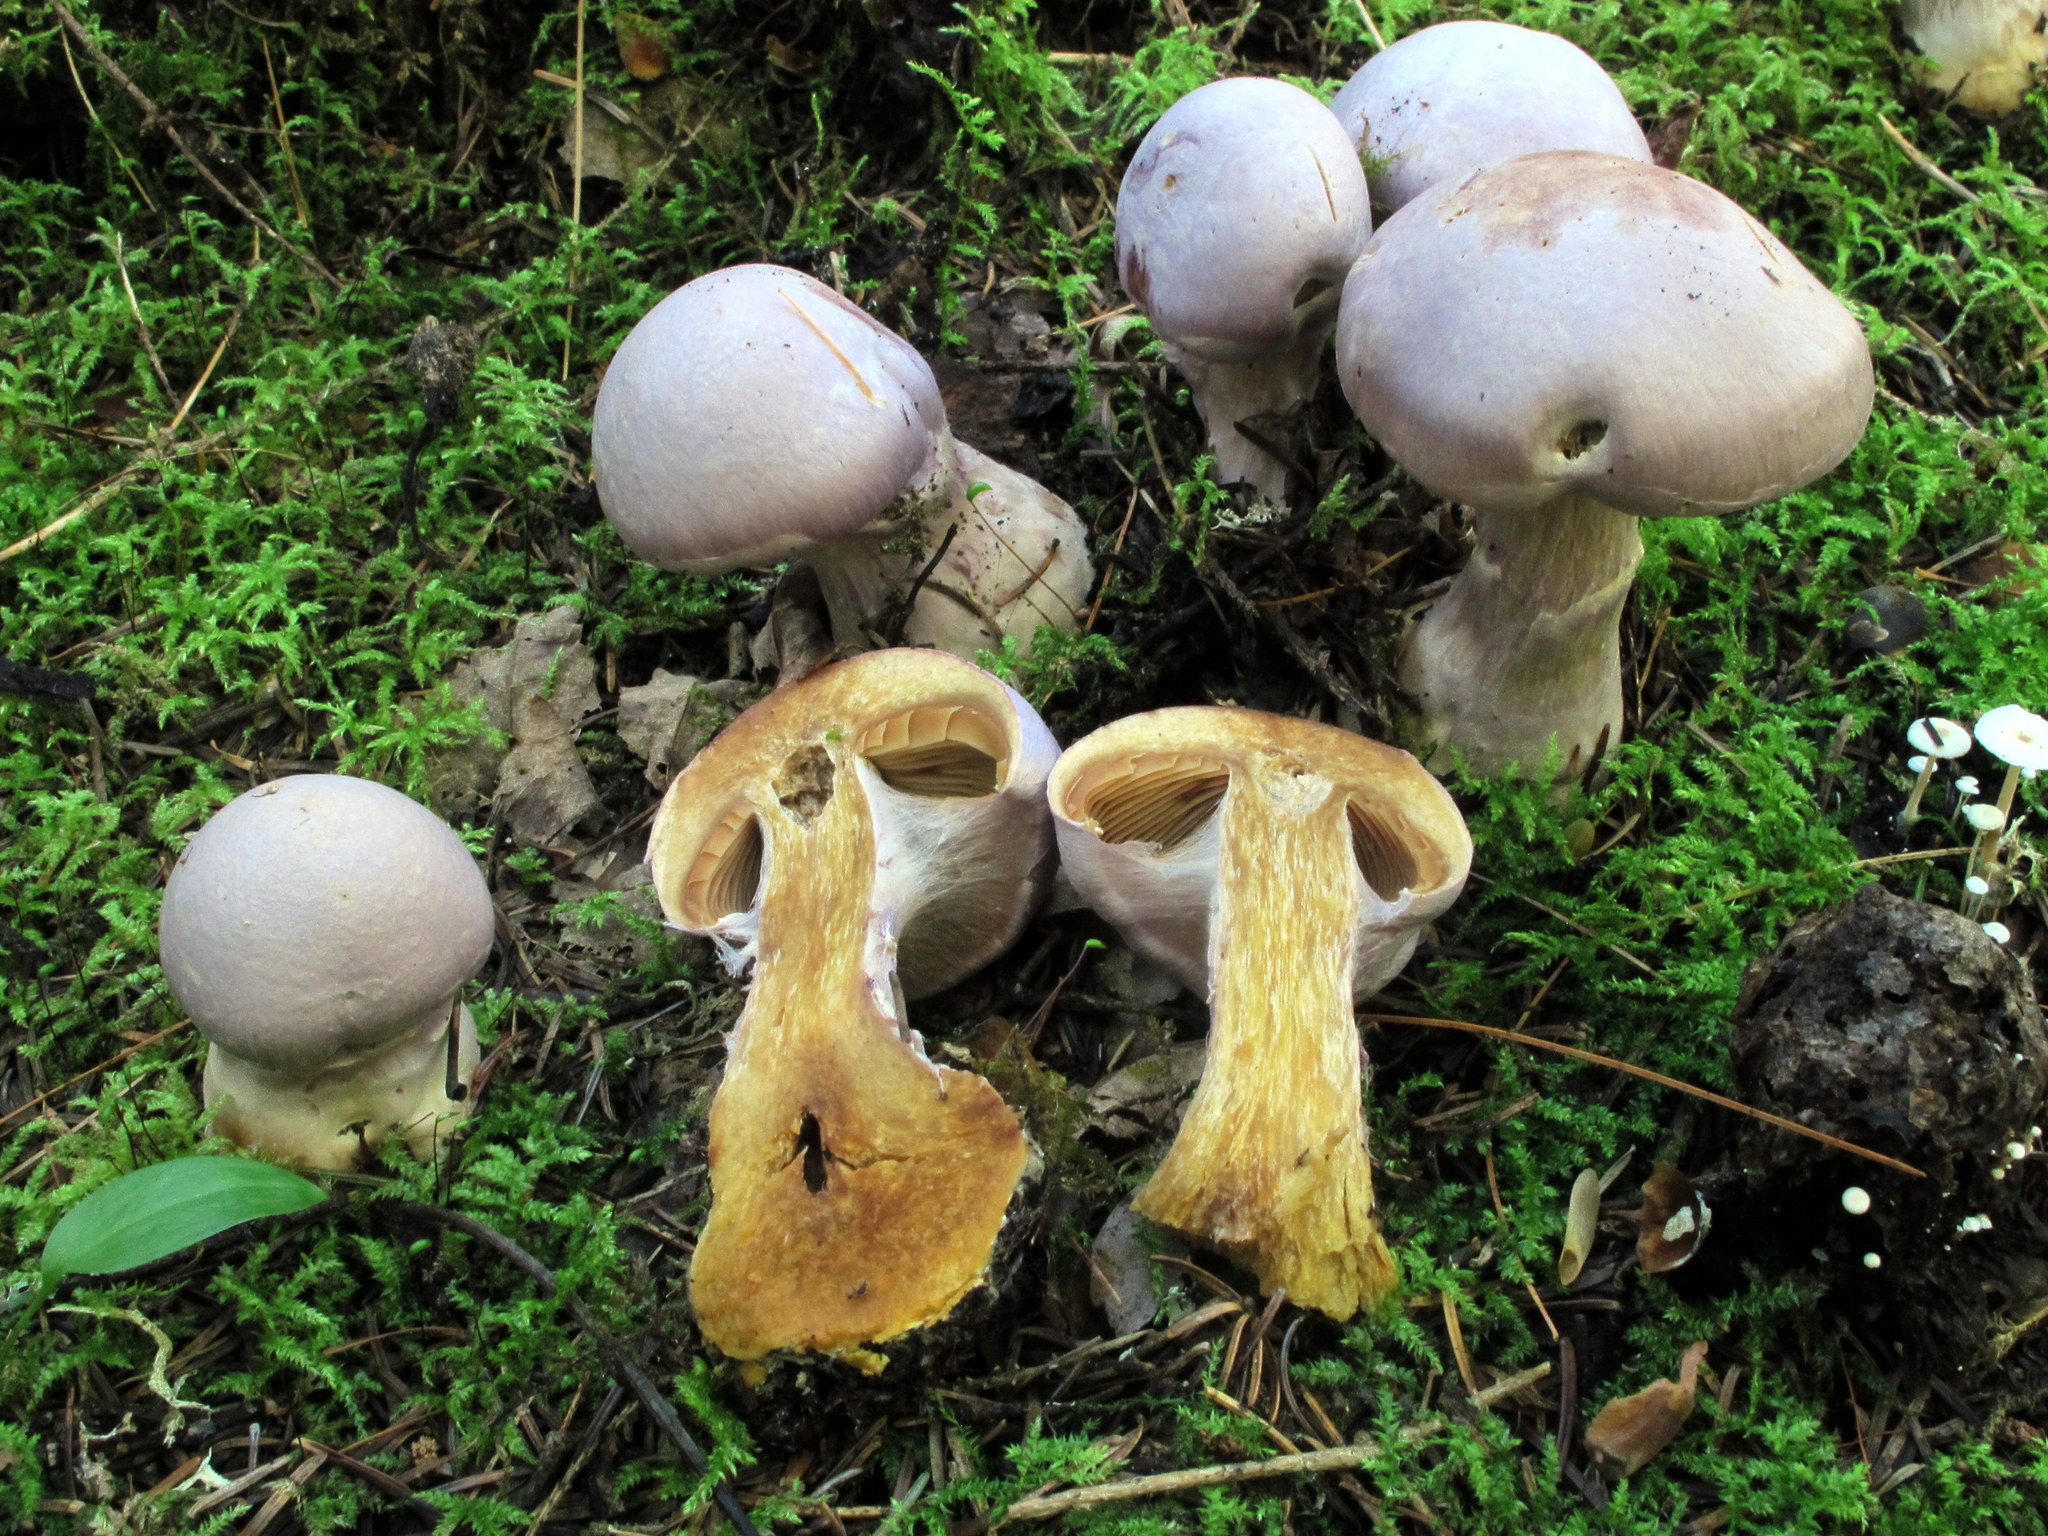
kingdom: Fungi
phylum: Basidiomycota
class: Agaricomycetes
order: Agaricales
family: Cortinariaceae
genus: Cortinarius
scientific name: Cortinarius traganus
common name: Gassy webcap
